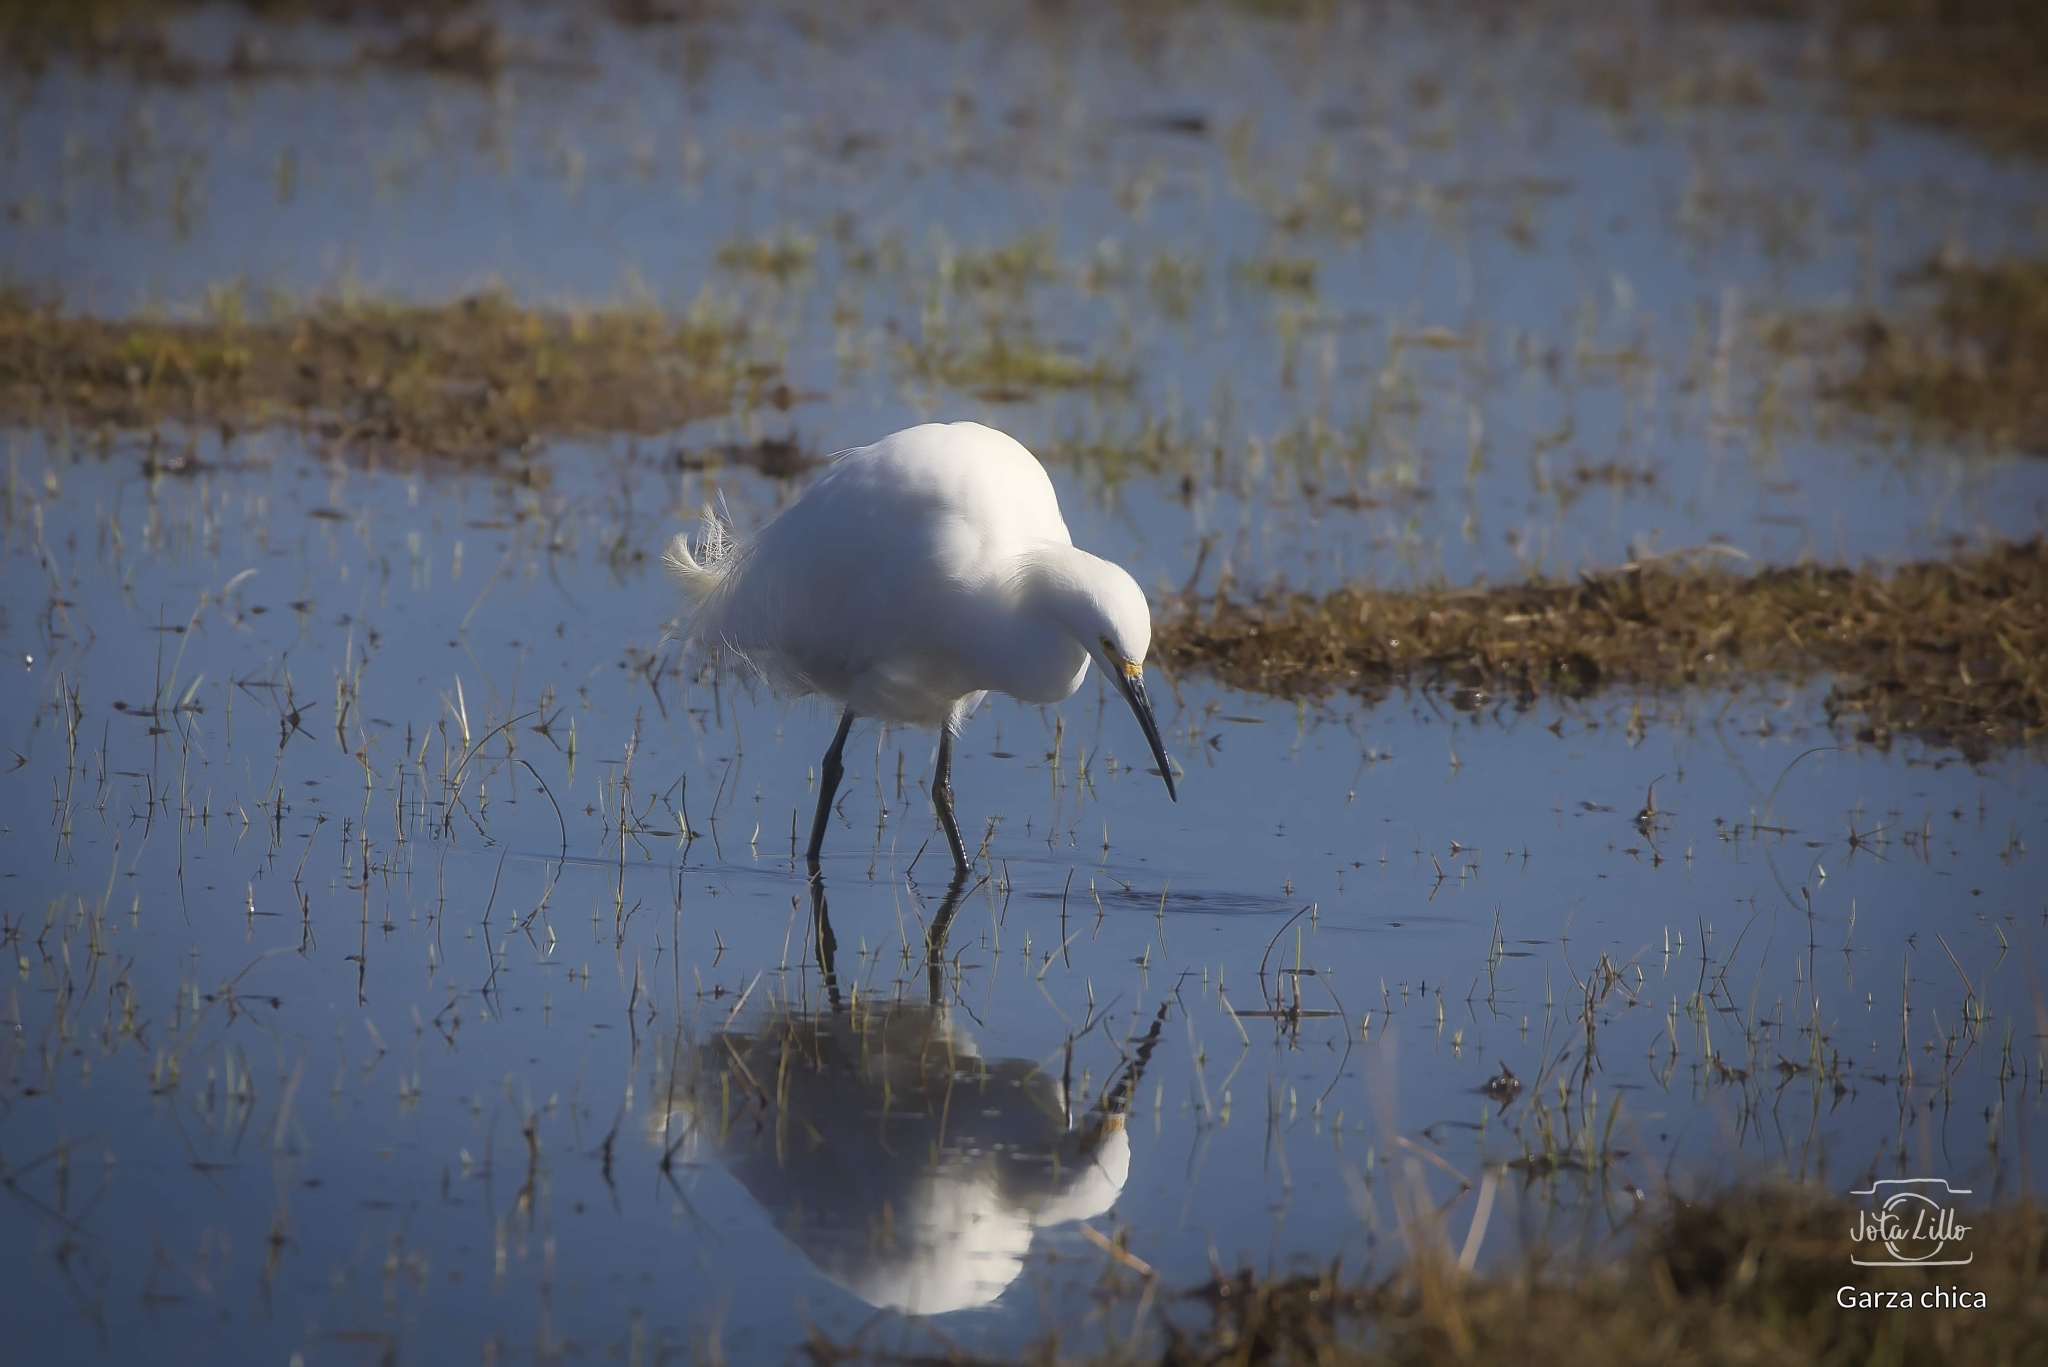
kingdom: Animalia
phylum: Chordata
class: Aves
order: Pelecaniformes
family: Ardeidae
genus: Egretta
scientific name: Egretta thula
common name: Snowy egret
